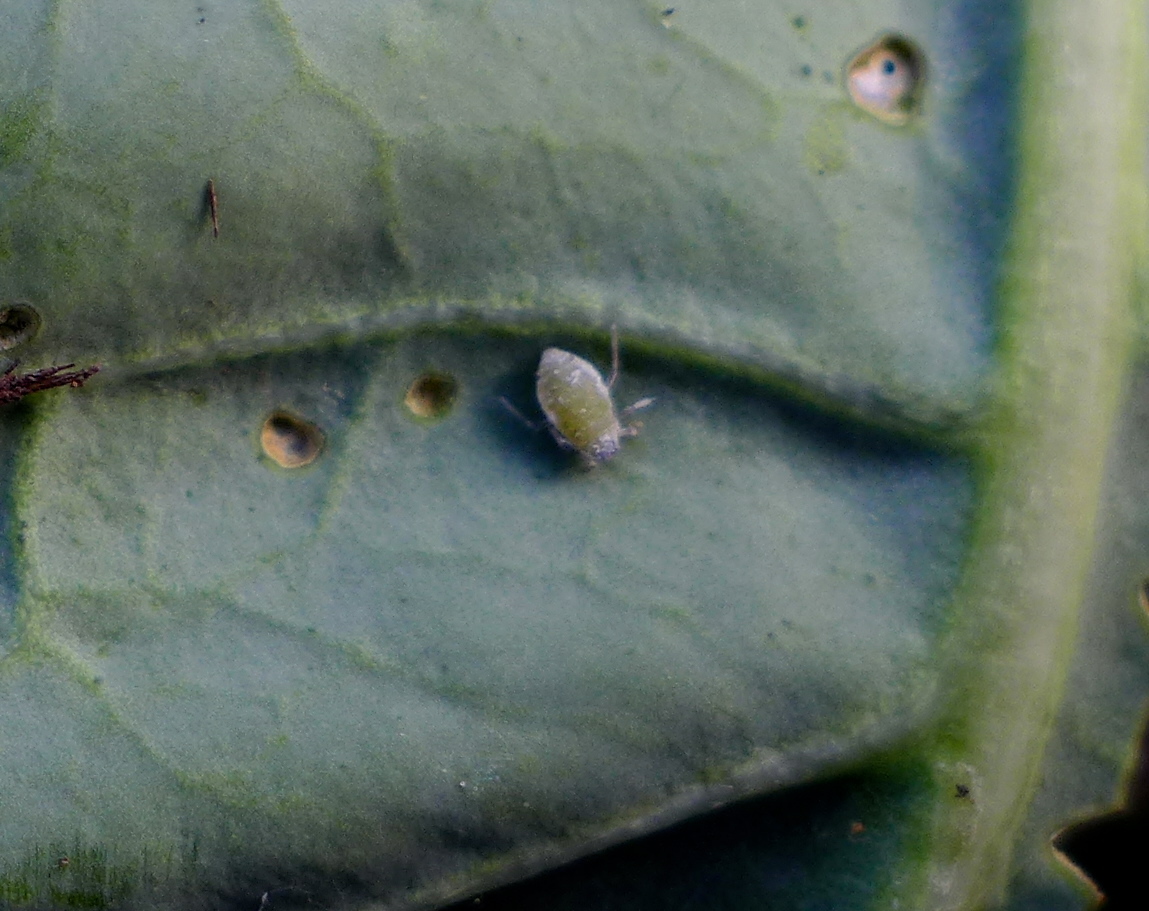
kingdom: Animalia
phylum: Arthropoda
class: Insecta
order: Hemiptera
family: Aphididae
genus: Brevicoryne
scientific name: Brevicoryne brassicae
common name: Cabbage aphid
